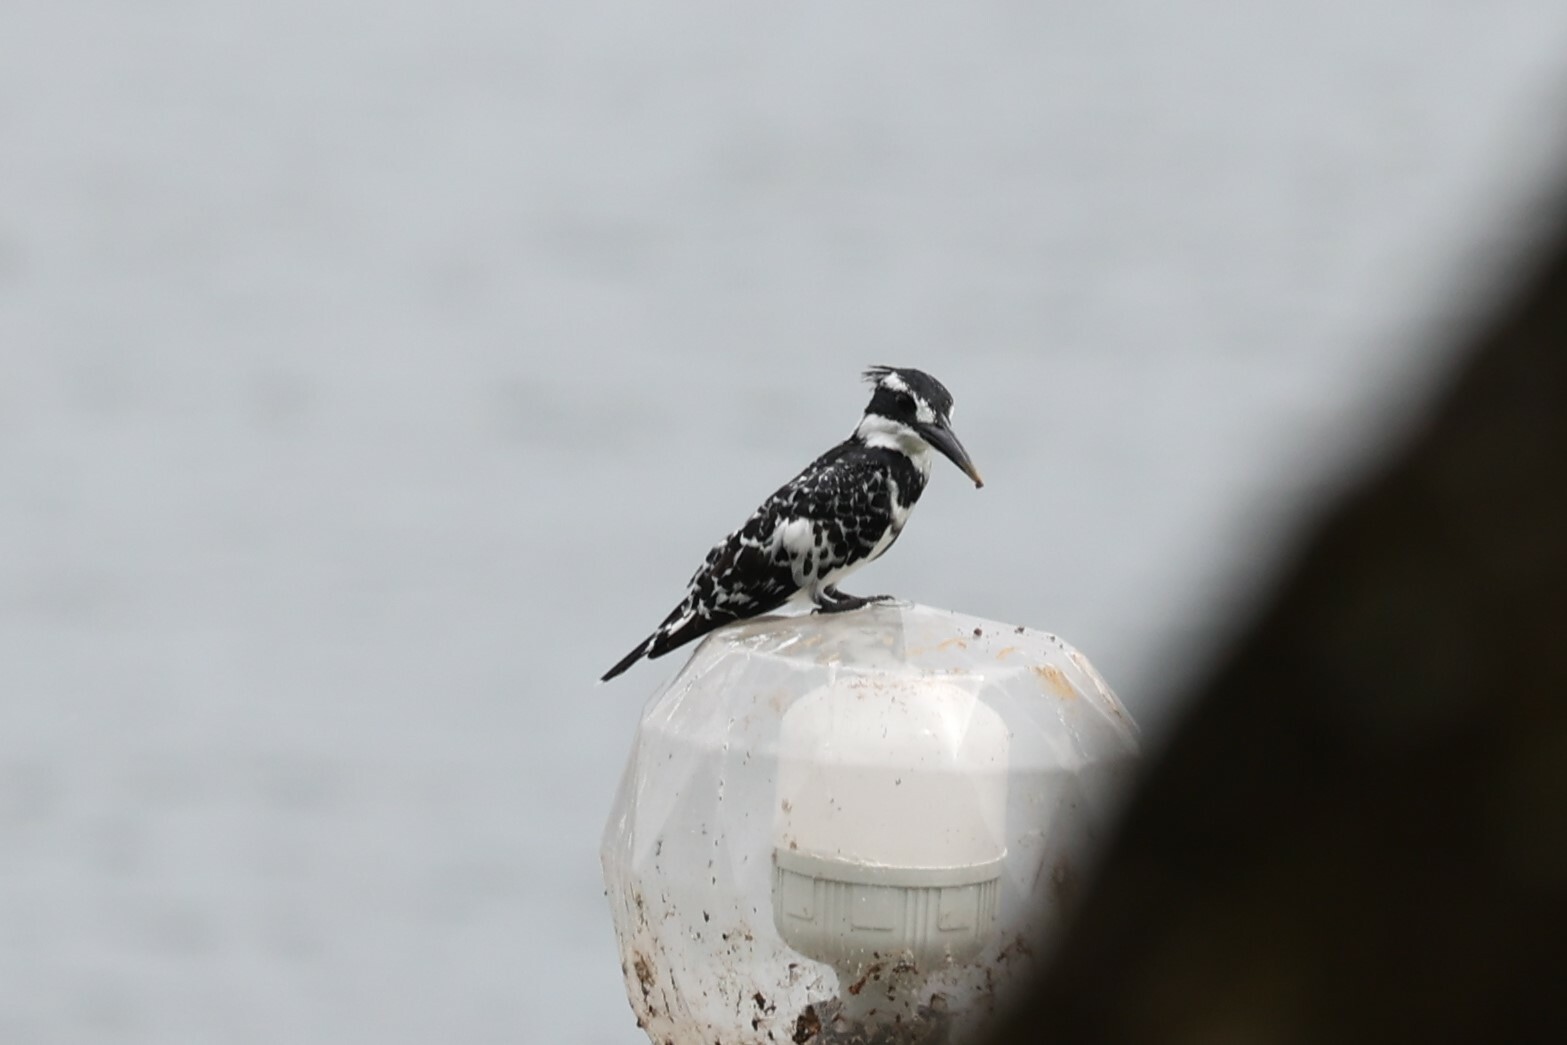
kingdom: Animalia
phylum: Chordata
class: Aves
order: Coraciiformes
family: Alcedinidae
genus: Ceryle
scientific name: Ceryle rudis
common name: Pied kingfisher
